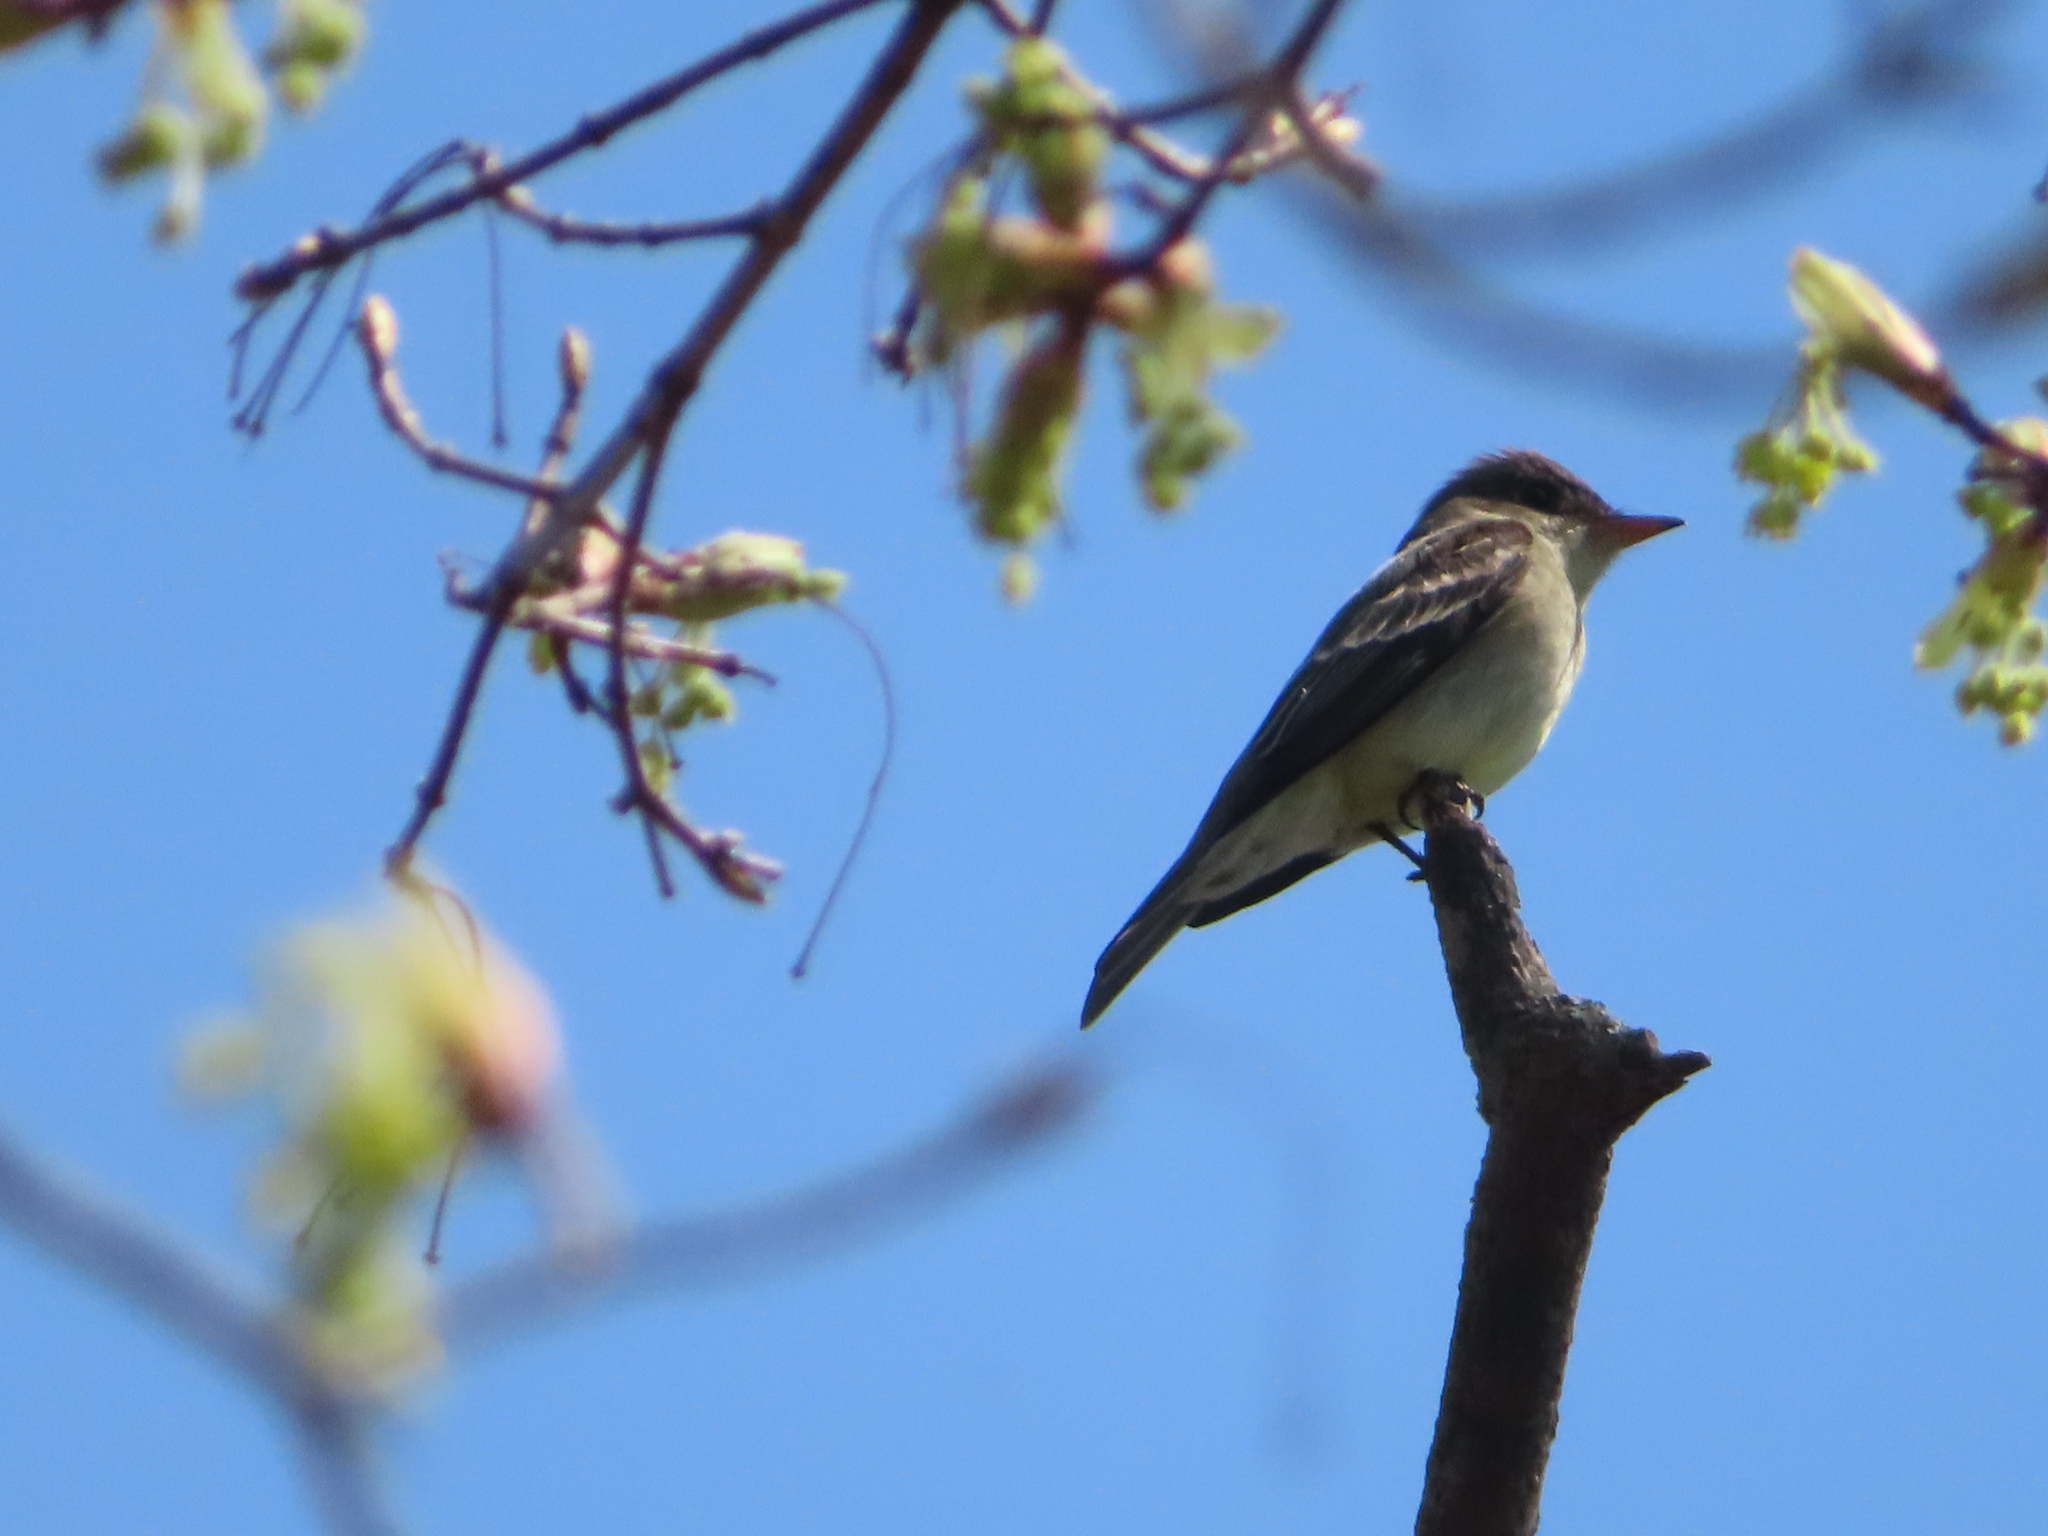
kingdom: Animalia
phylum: Chordata
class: Aves
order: Passeriformes
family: Tyrannidae
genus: Contopus
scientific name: Contopus virens
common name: Eastern wood-pewee
